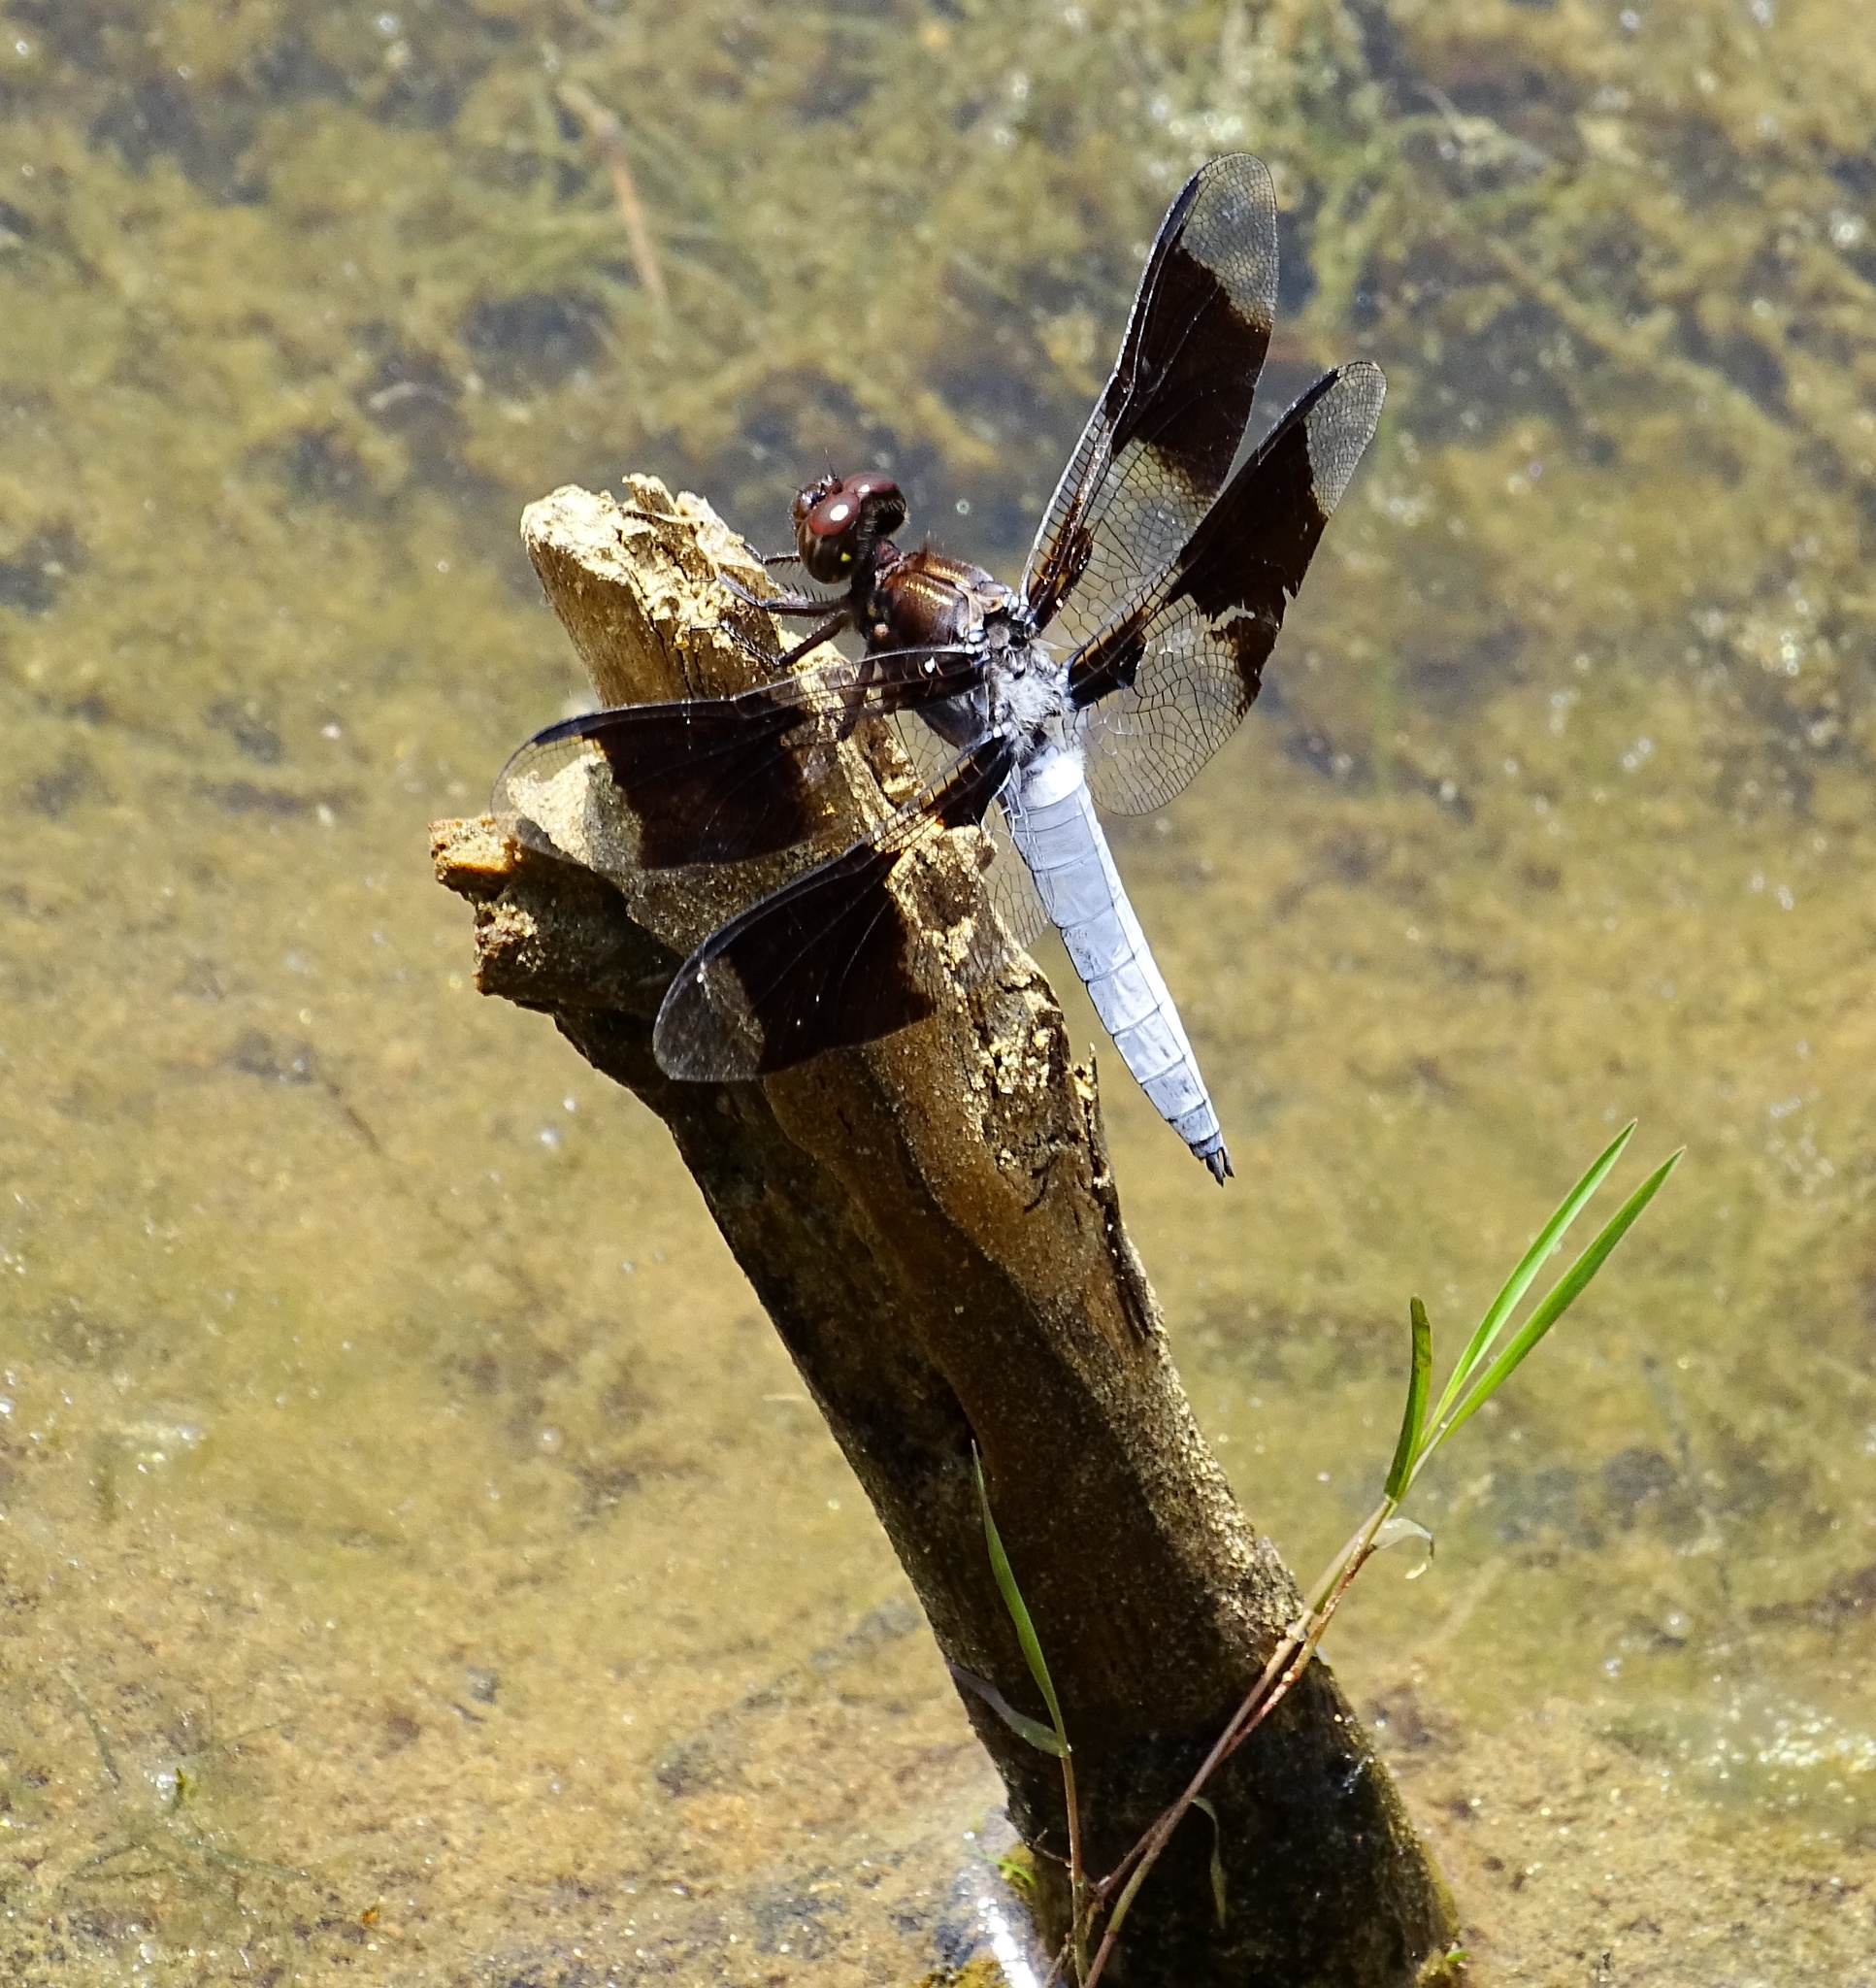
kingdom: Animalia
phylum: Arthropoda
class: Insecta
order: Odonata
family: Libellulidae
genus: Plathemis
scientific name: Plathemis lydia
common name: Common whitetail
